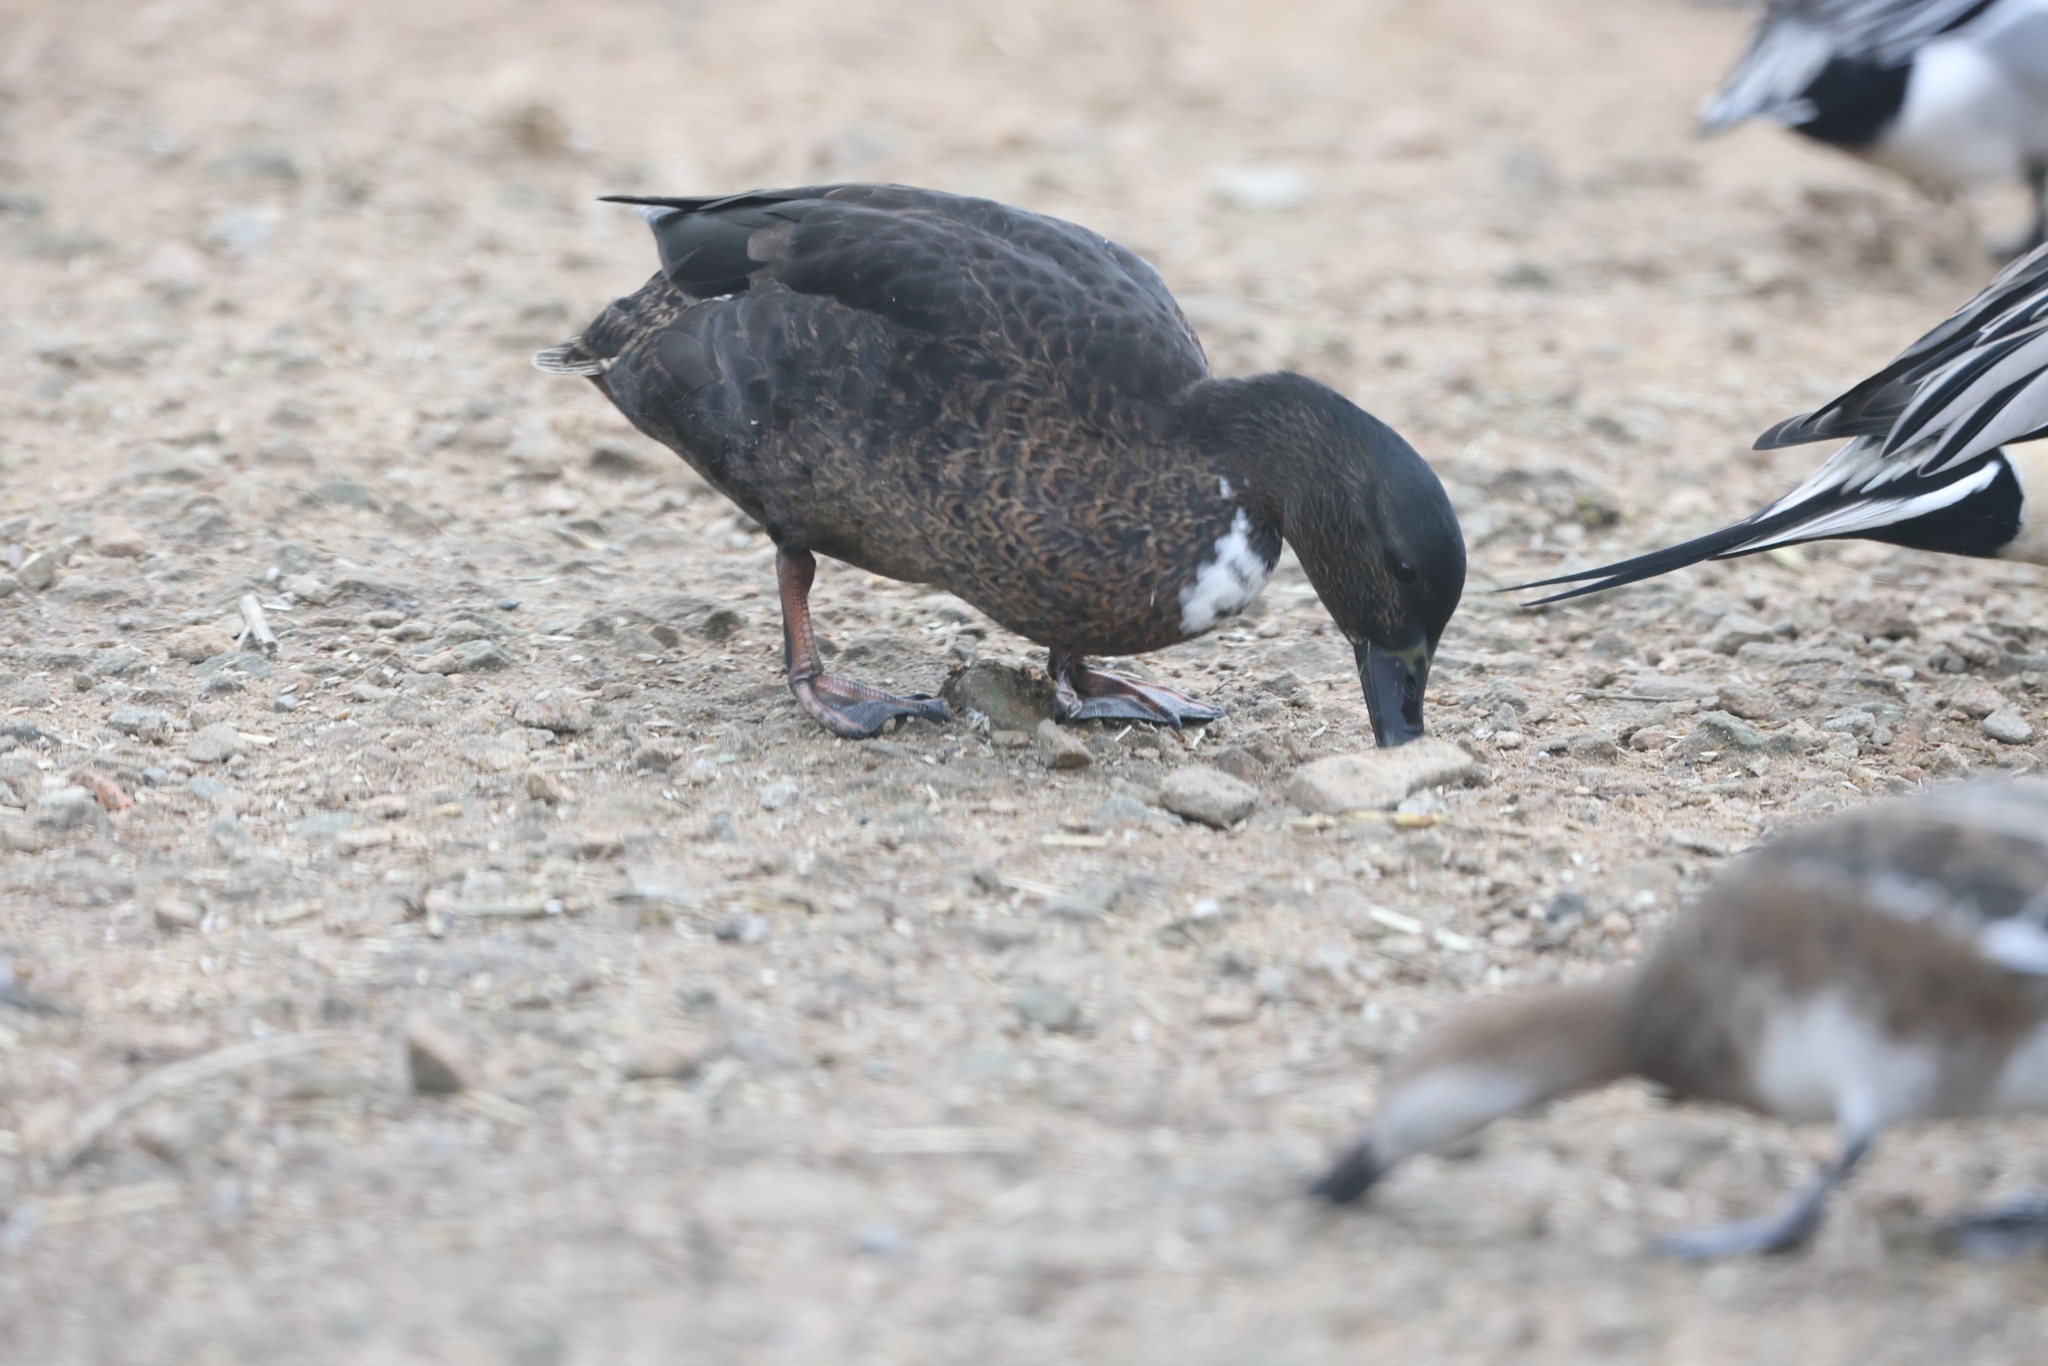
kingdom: Animalia
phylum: Chordata
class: Aves
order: Anseriformes
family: Anatidae
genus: Anas
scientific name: Anas platyrhynchos
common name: Mallard
